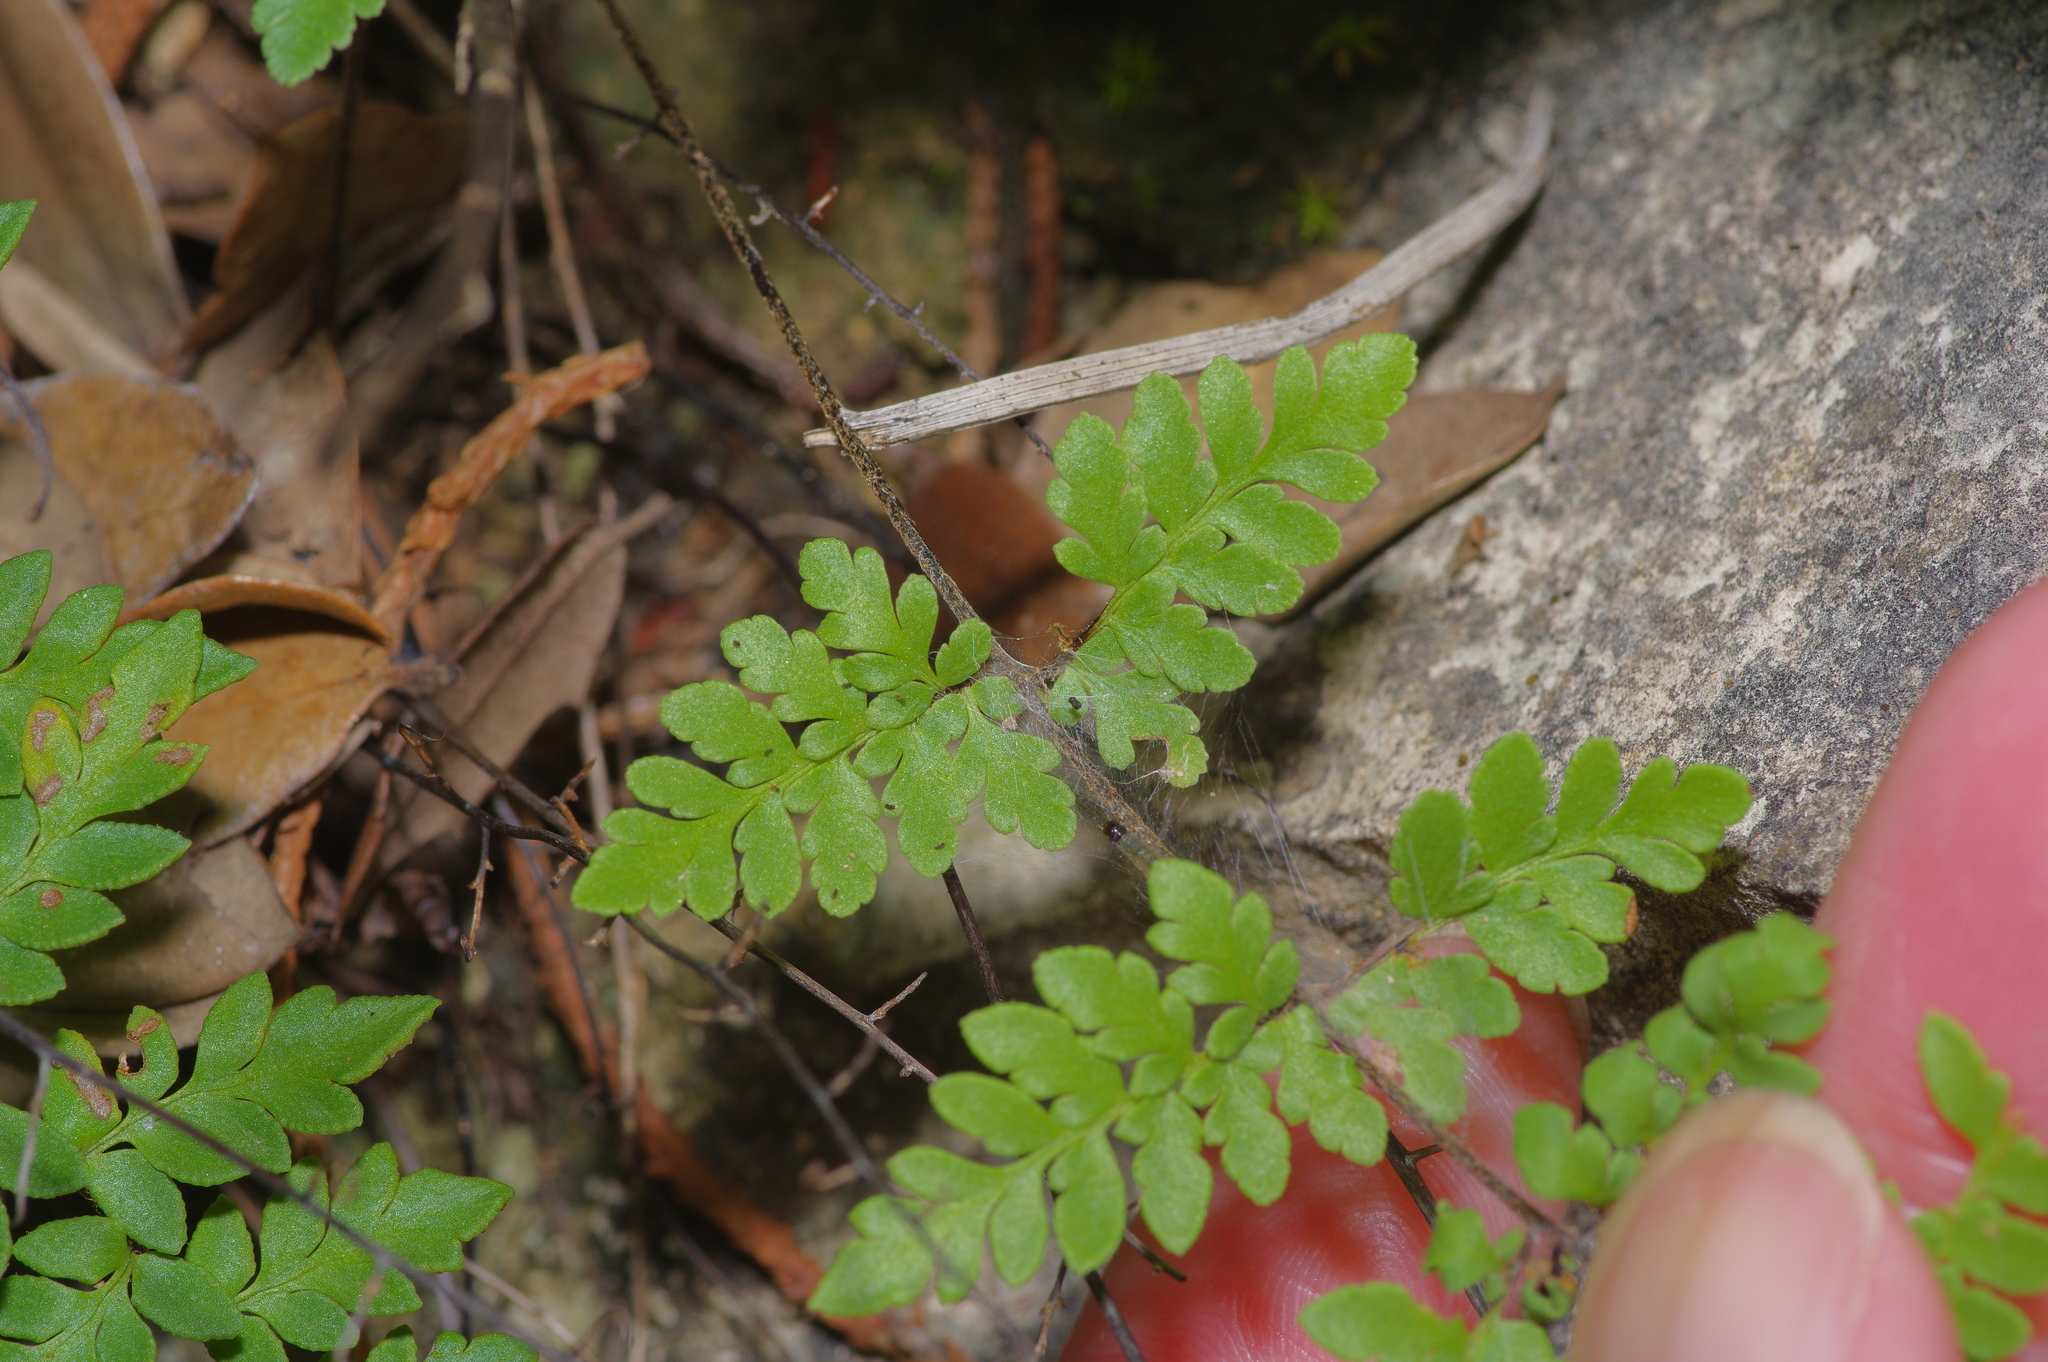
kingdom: Plantae
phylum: Tracheophyta
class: Polypodiopsida
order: Polypodiales
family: Pteridaceae
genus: Myriopteris
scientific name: Myriopteris alabamensis
